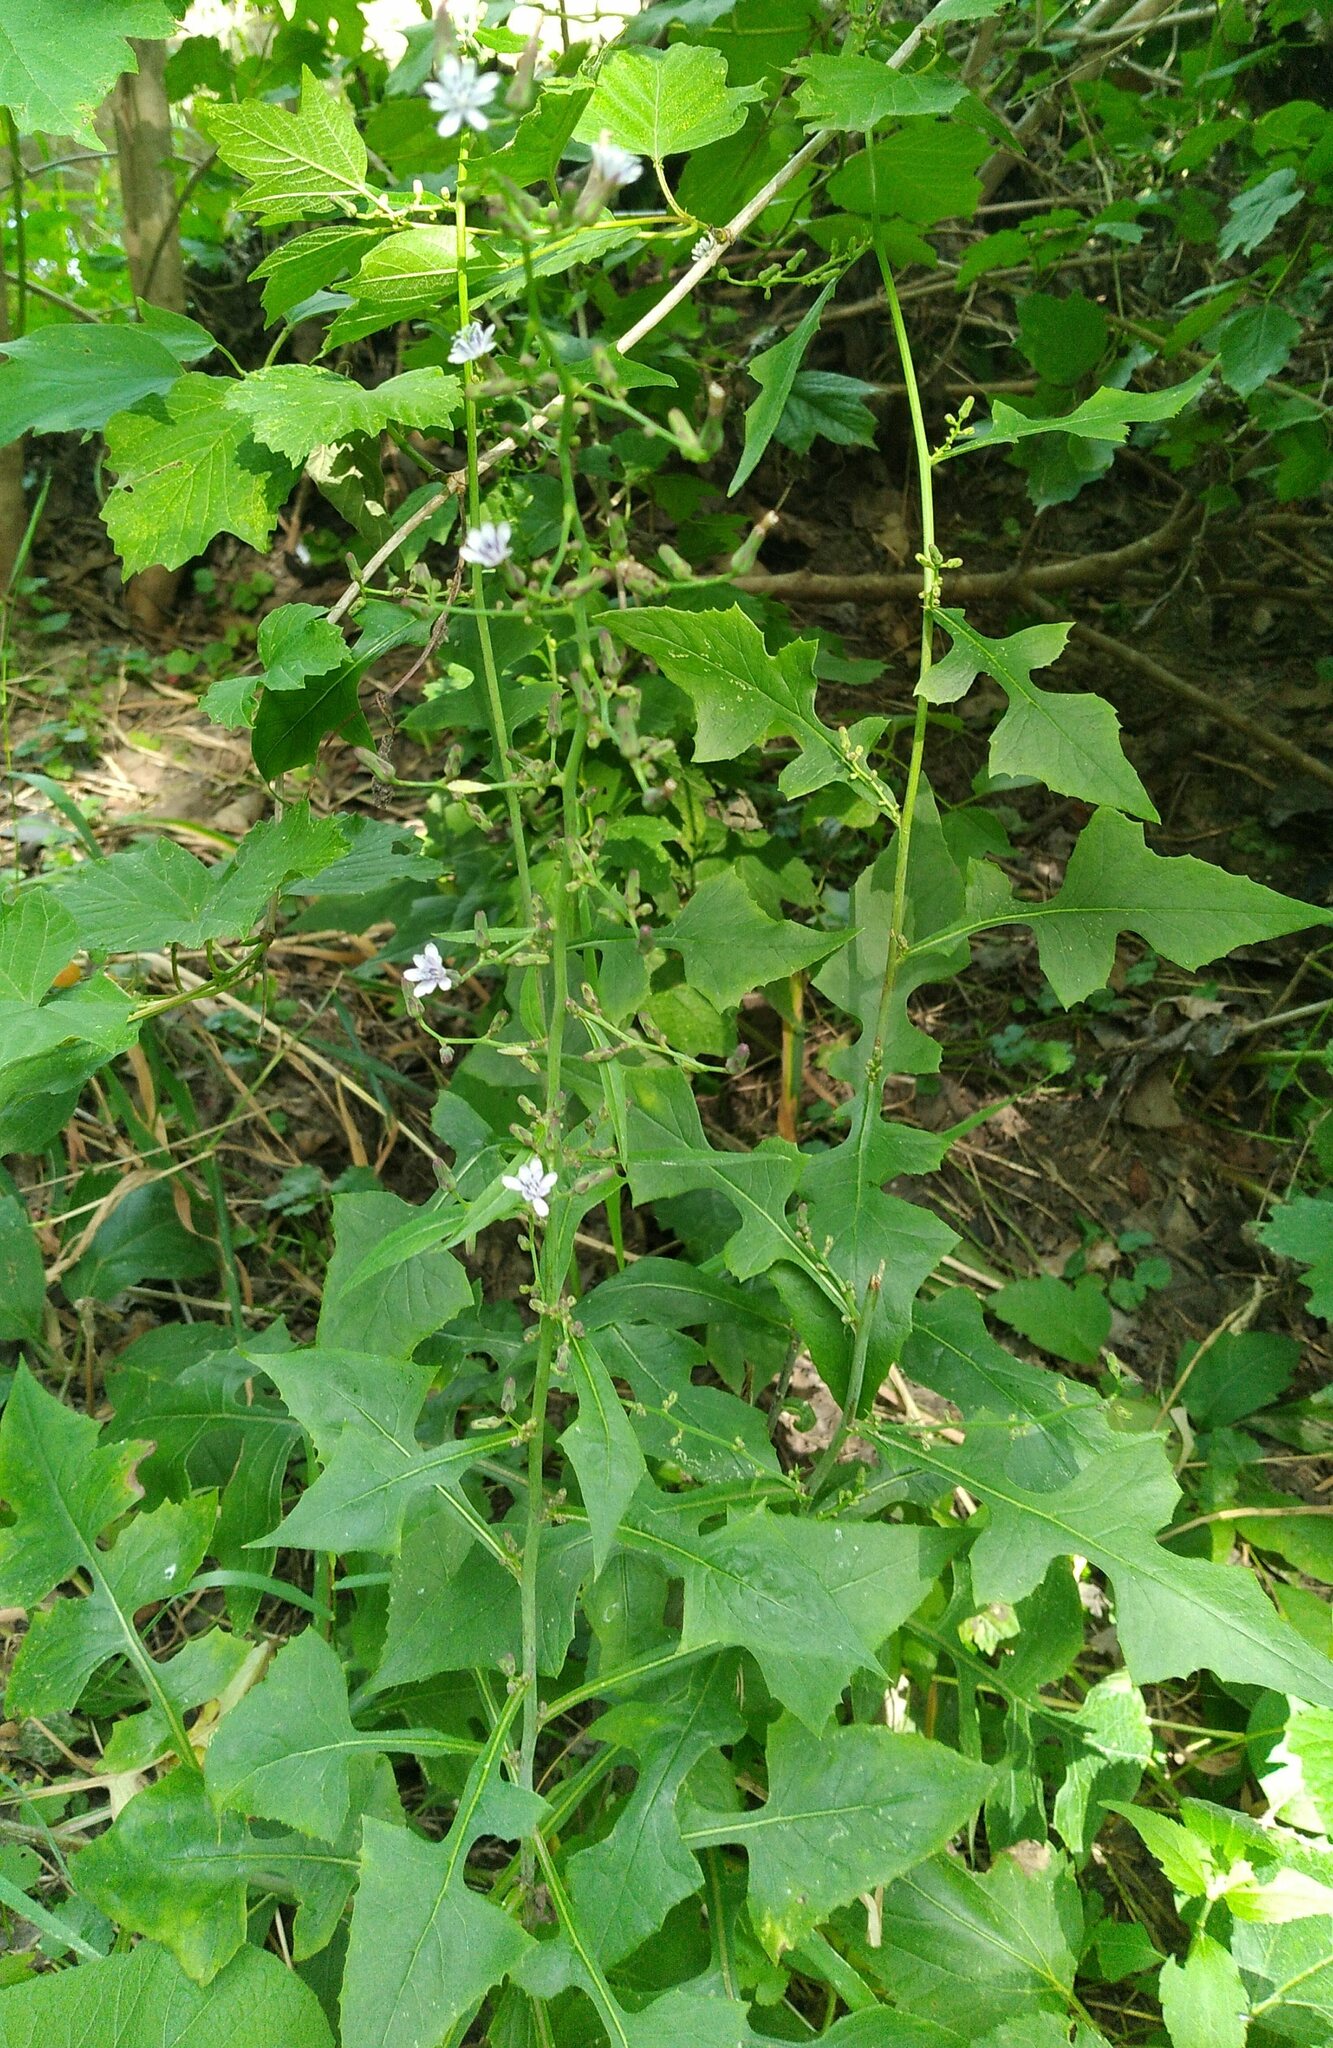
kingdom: Plantae
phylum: Tracheophyta
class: Magnoliopsida
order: Asterales
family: Asteraceae
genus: Lactuca
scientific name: Lactuca floridana
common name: Woodland lettuce
